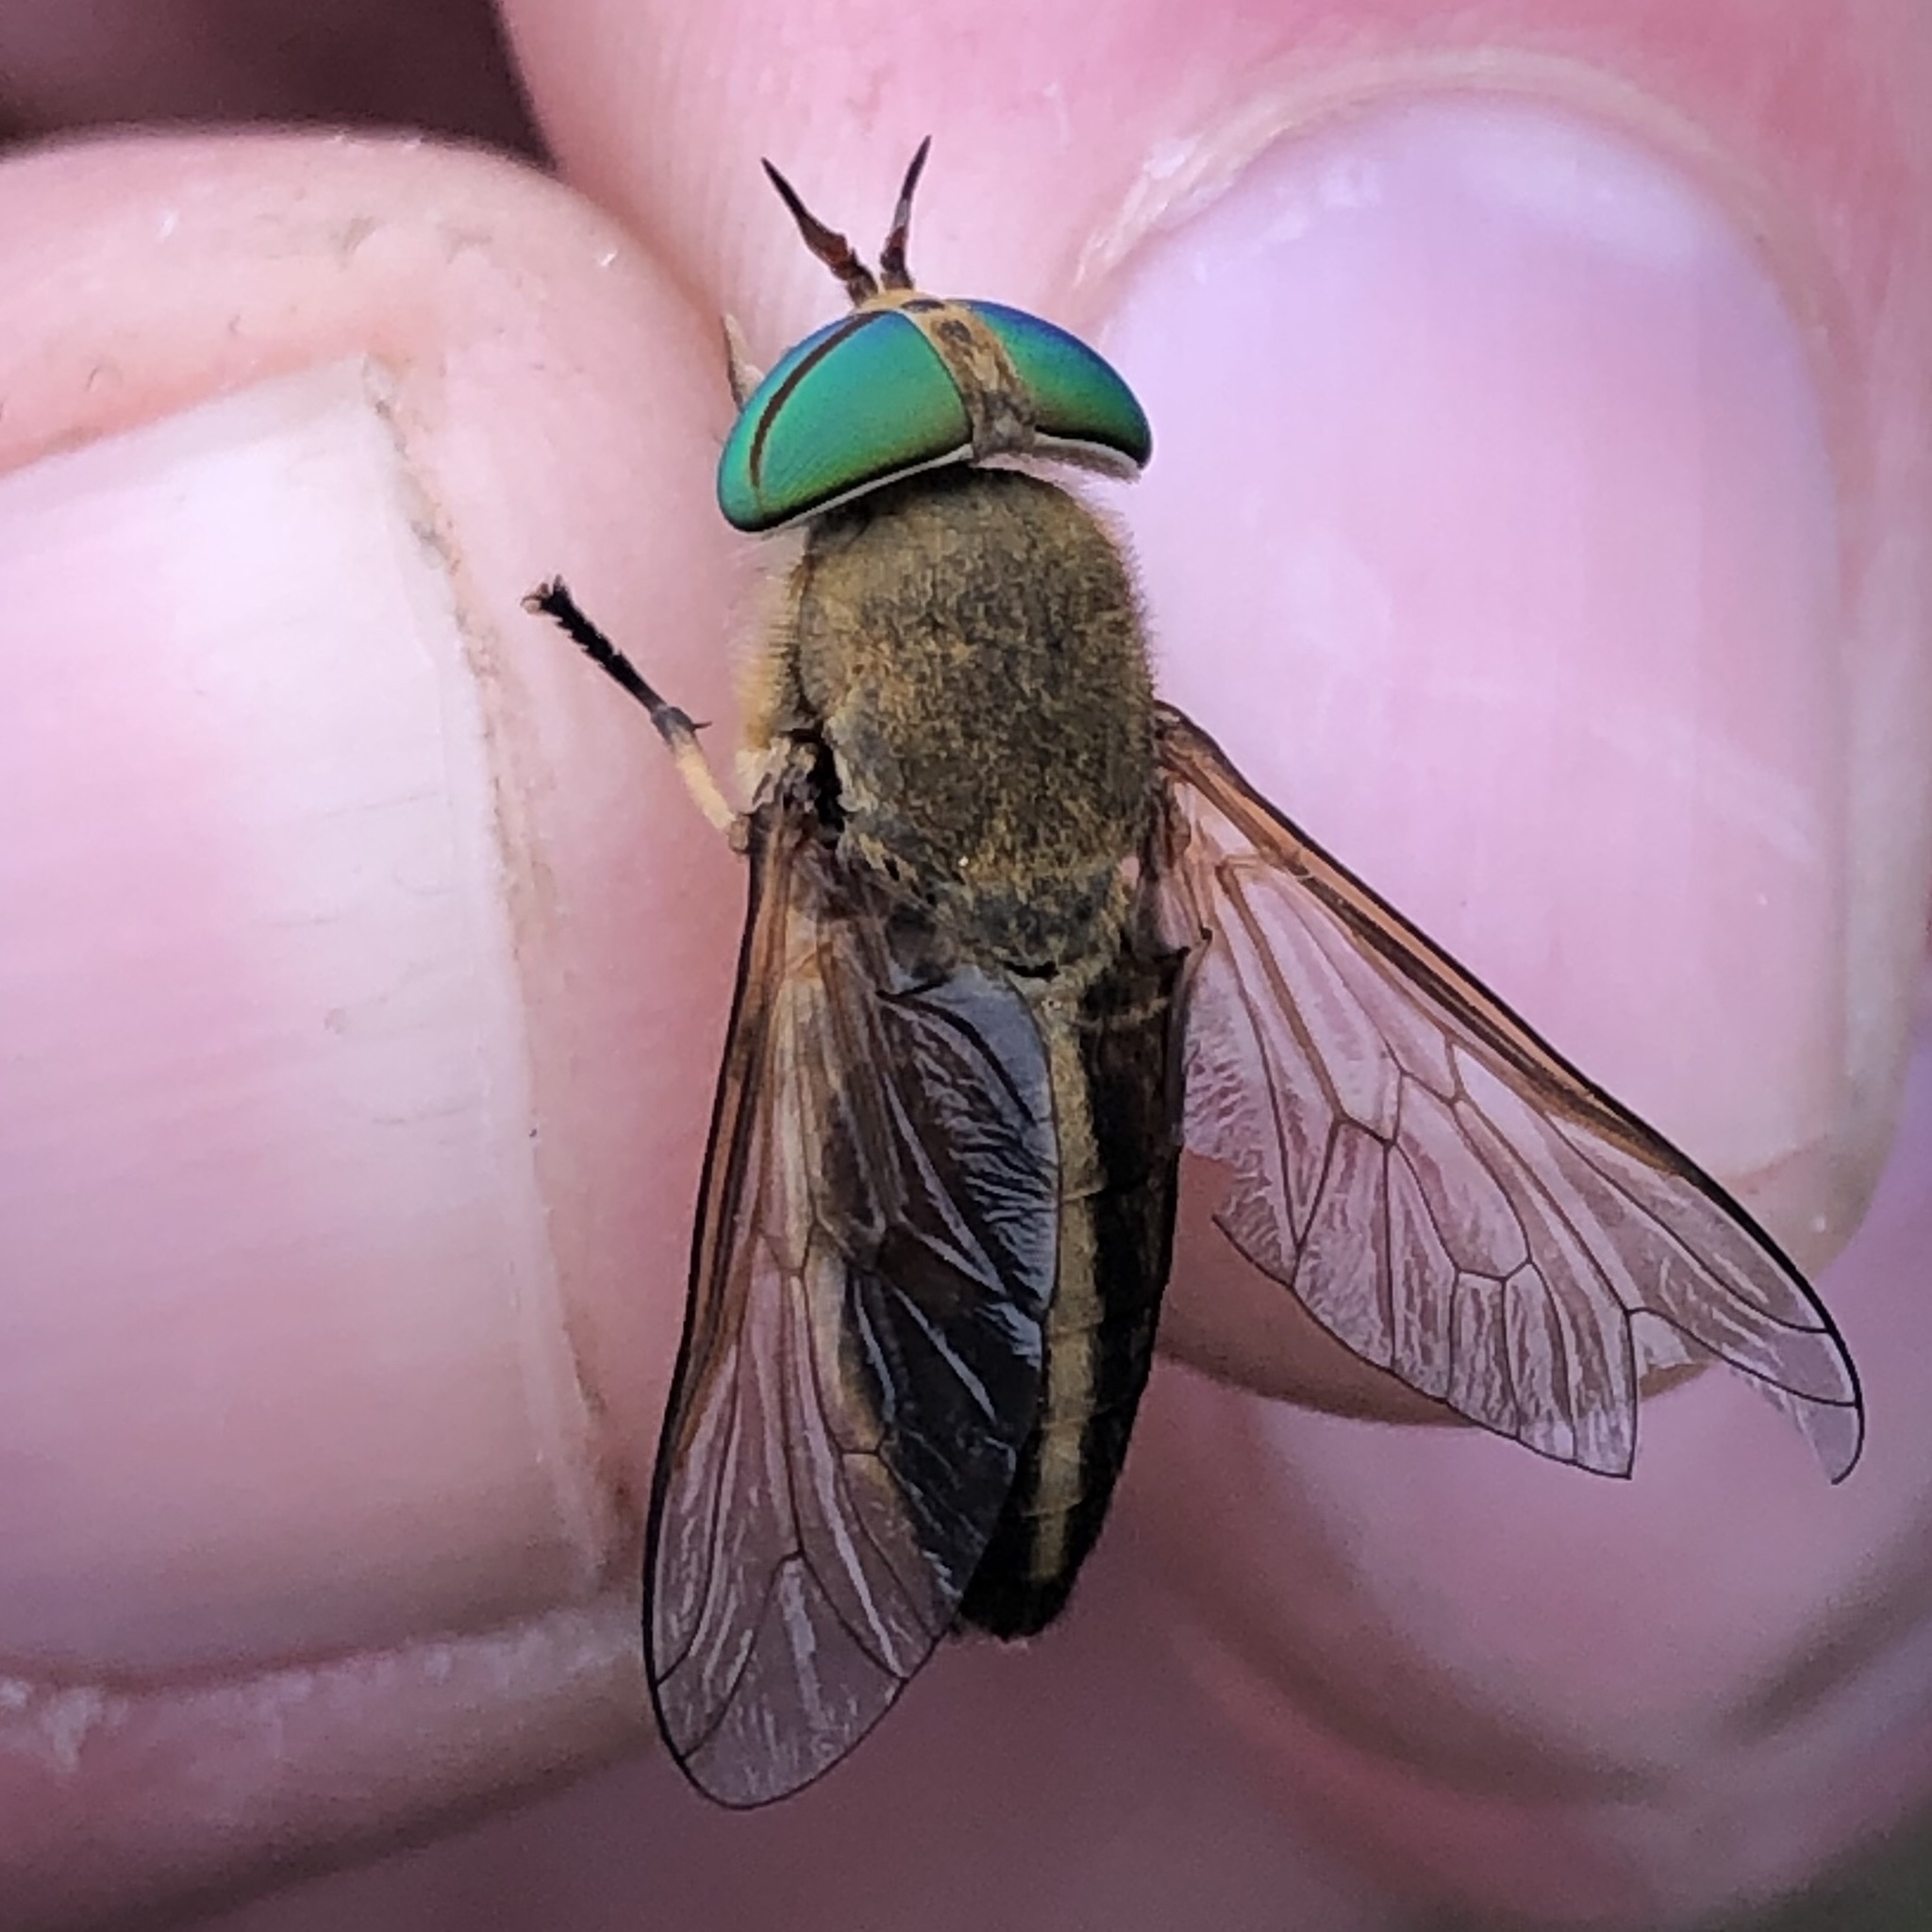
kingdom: Animalia
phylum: Arthropoda
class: Insecta
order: Diptera
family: Tabanidae
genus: Tabanus
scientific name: Tabanus quinquevittatus
